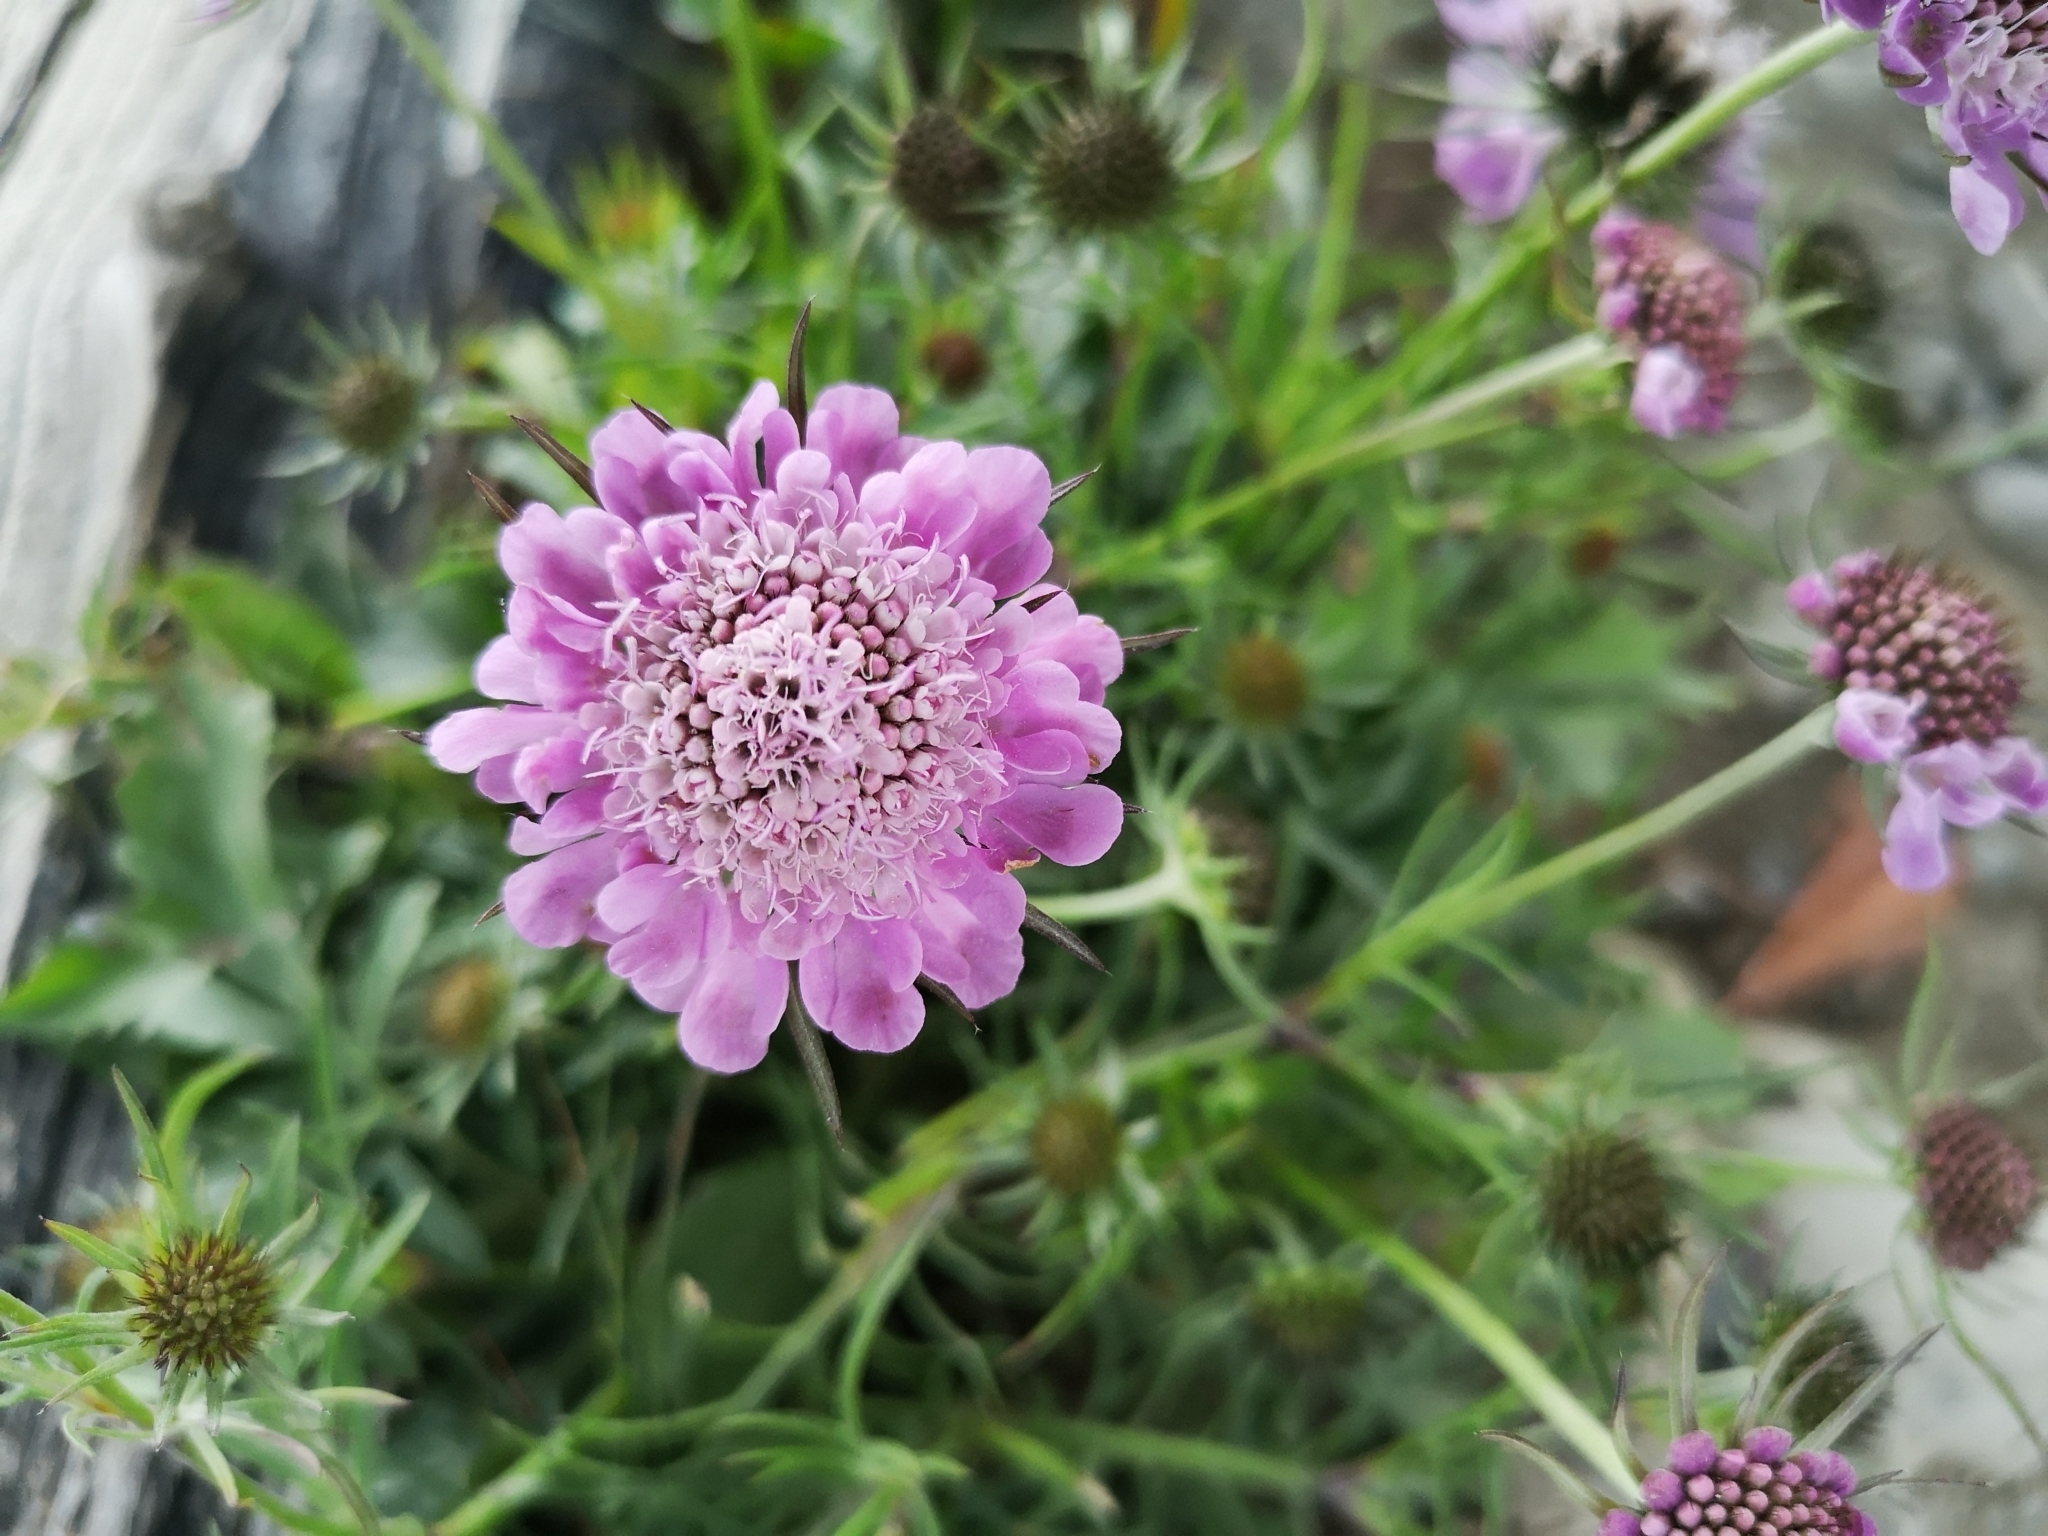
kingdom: Plantae
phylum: Tracheophyta
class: Magnoliopsida
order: Dipsacales
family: Caprifoliaceae
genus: Scabiosa
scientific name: Scabiosa lucida
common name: Shining scabious
